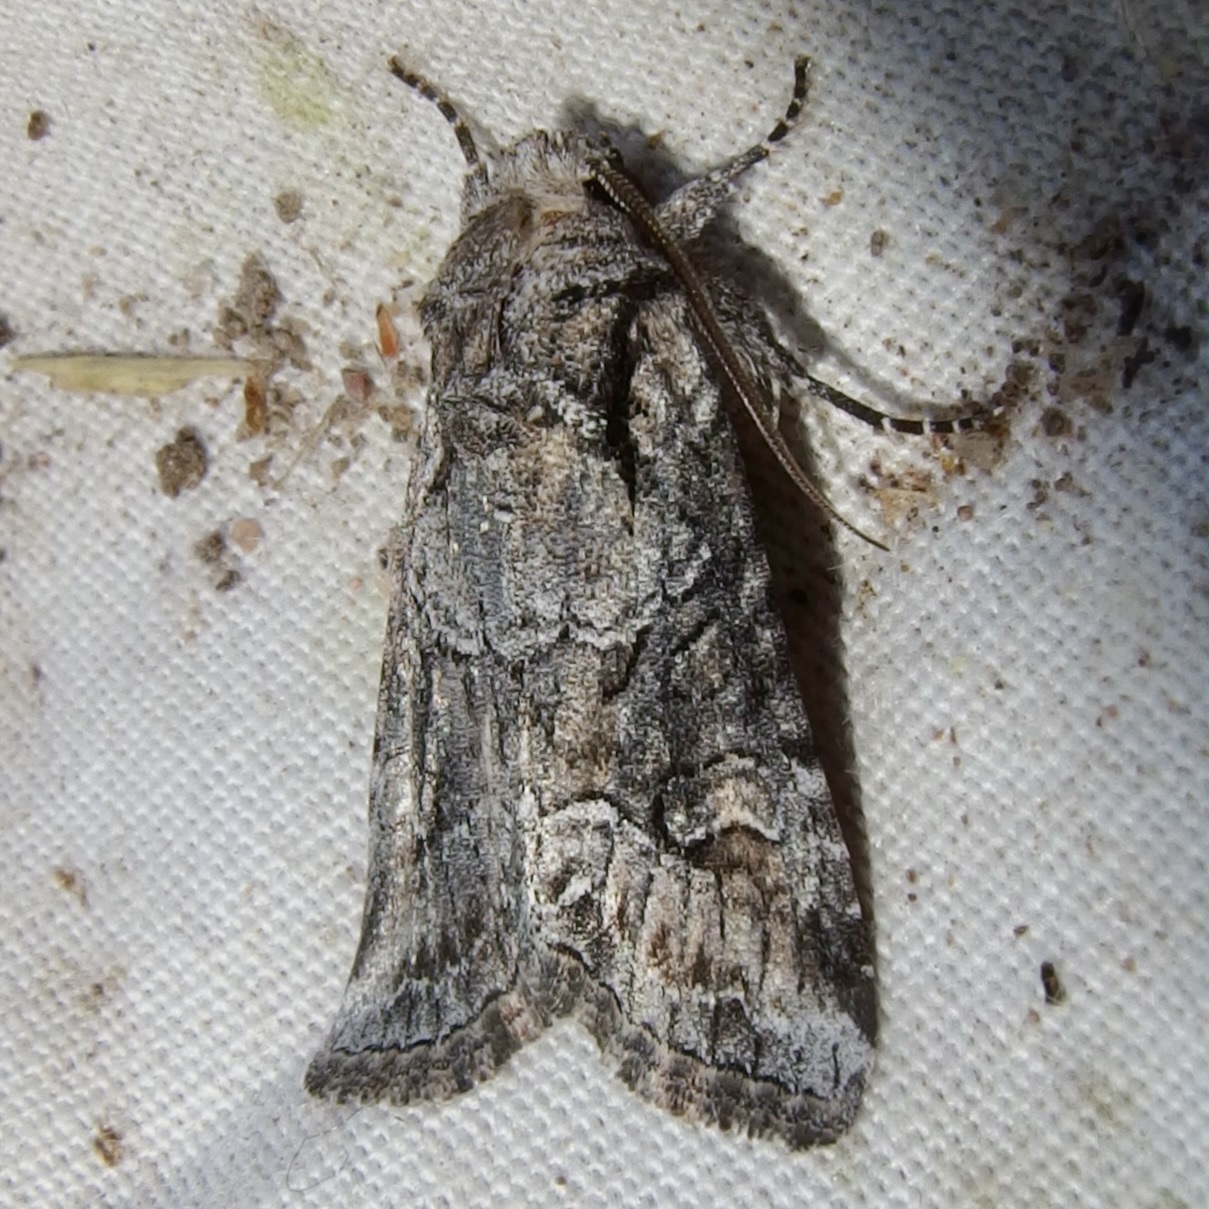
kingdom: Animalia
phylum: Arthropoda
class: Insecta
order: Lepidoptera
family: Noctuidae
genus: Lacinipolia
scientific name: Lacinipolia rodora
